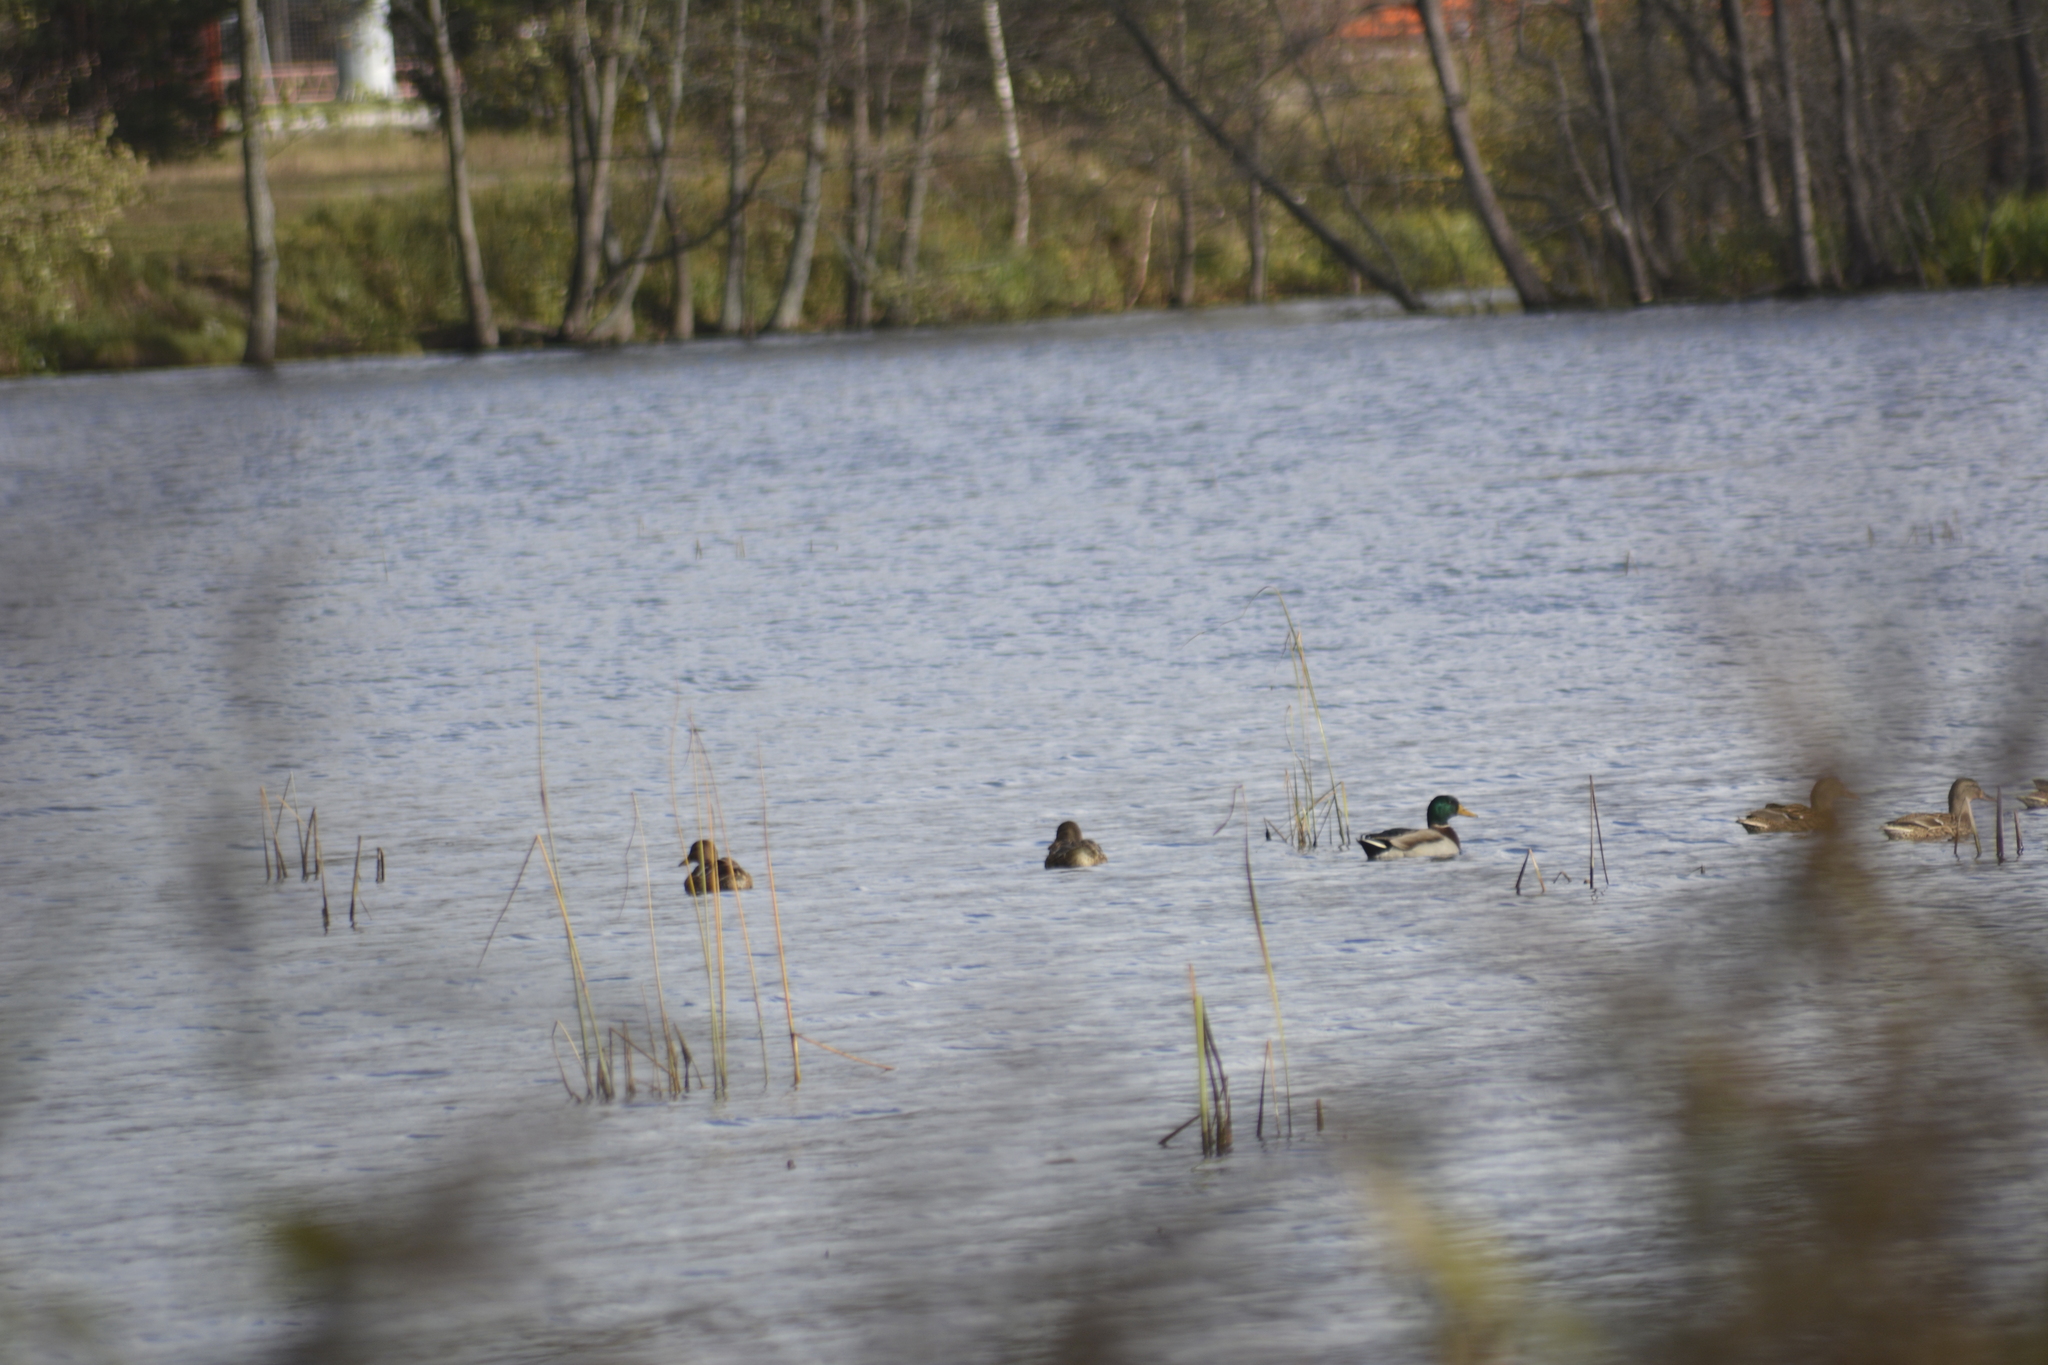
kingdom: Animalia
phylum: Chordata
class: Aves
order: Anseriformes
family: Anatidae
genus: Anas
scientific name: Anas platyrhynchos
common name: Mallard
